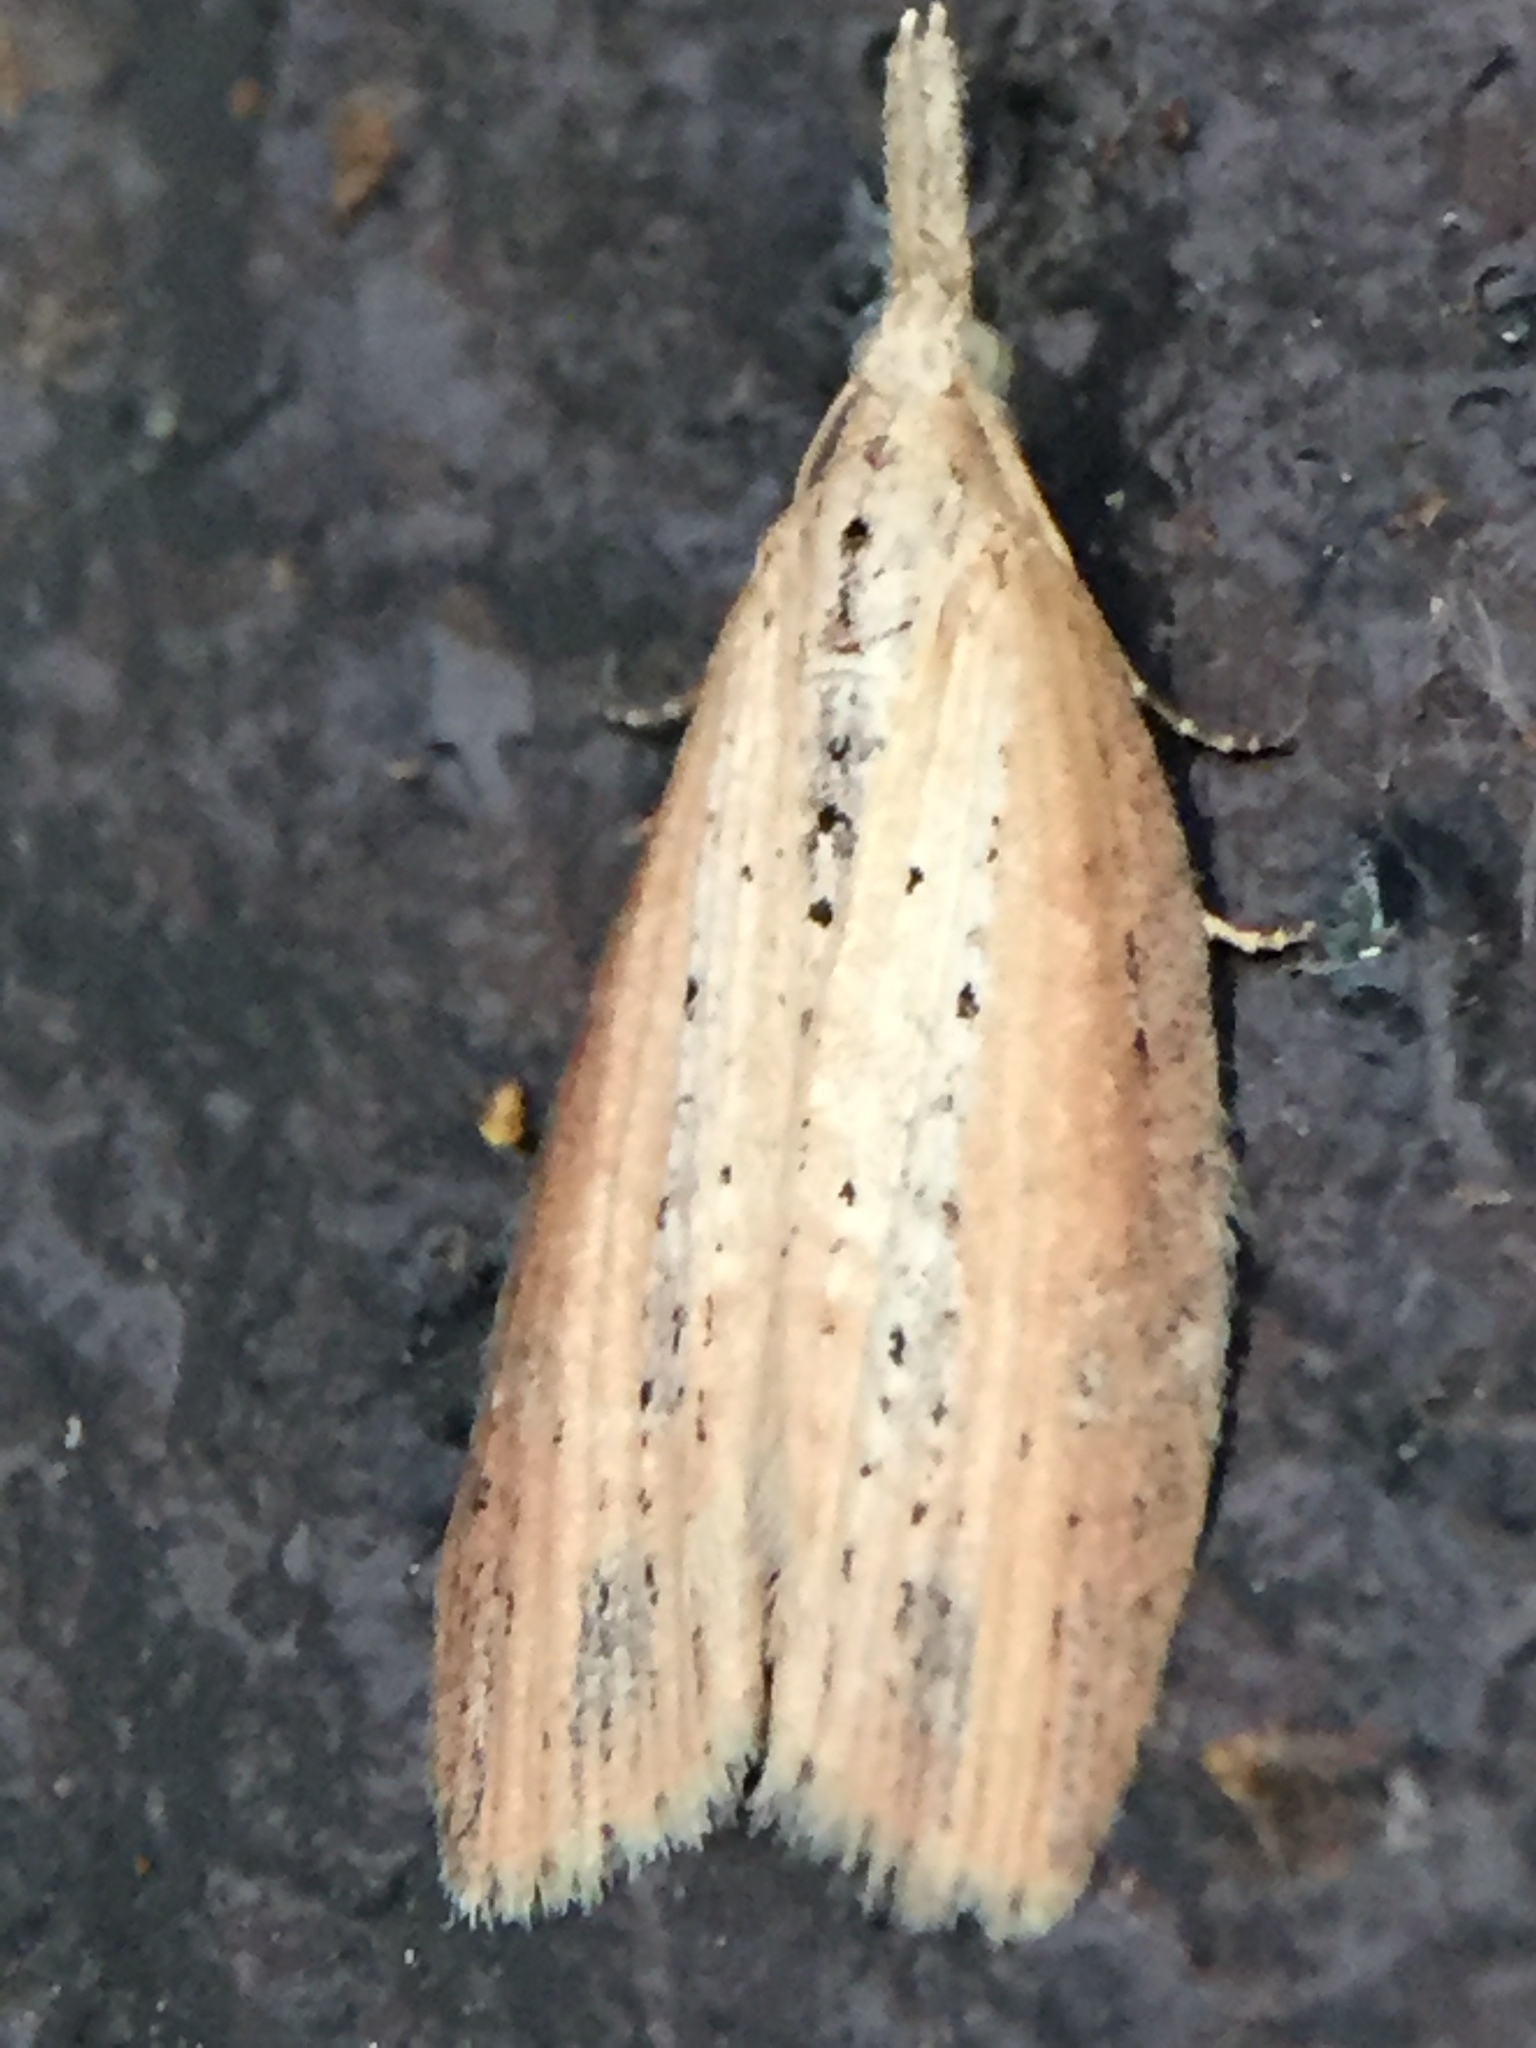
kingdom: Animalia
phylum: Arthropoda
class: Insecta
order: Lepidoptera
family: Geometridae
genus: Microdes
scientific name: Microdes epicryptis
